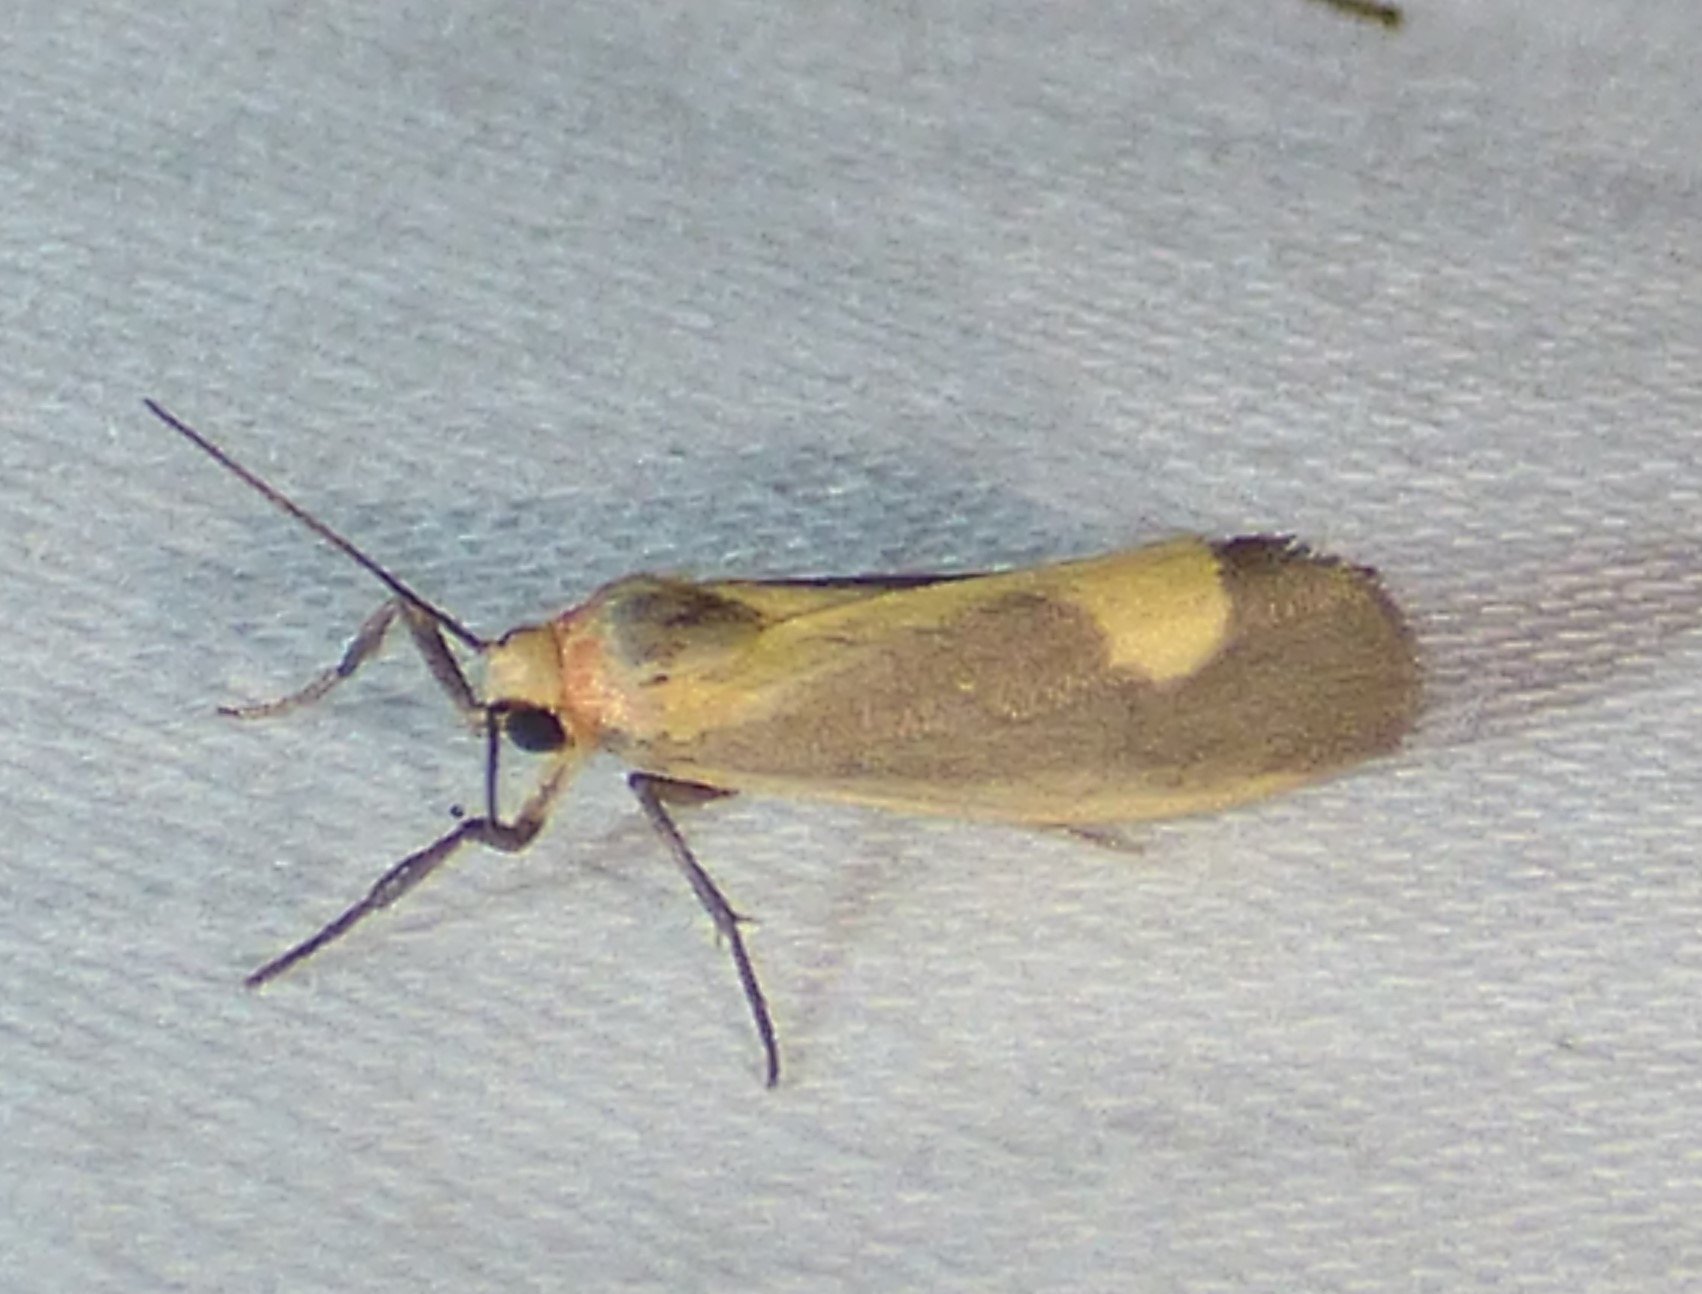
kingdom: Animalia
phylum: Arthropoda
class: Insecta
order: Lepidoptera
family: Erebidae
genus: Cisthene
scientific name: Cisthene plumbea
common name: Lead colored lichen moth
